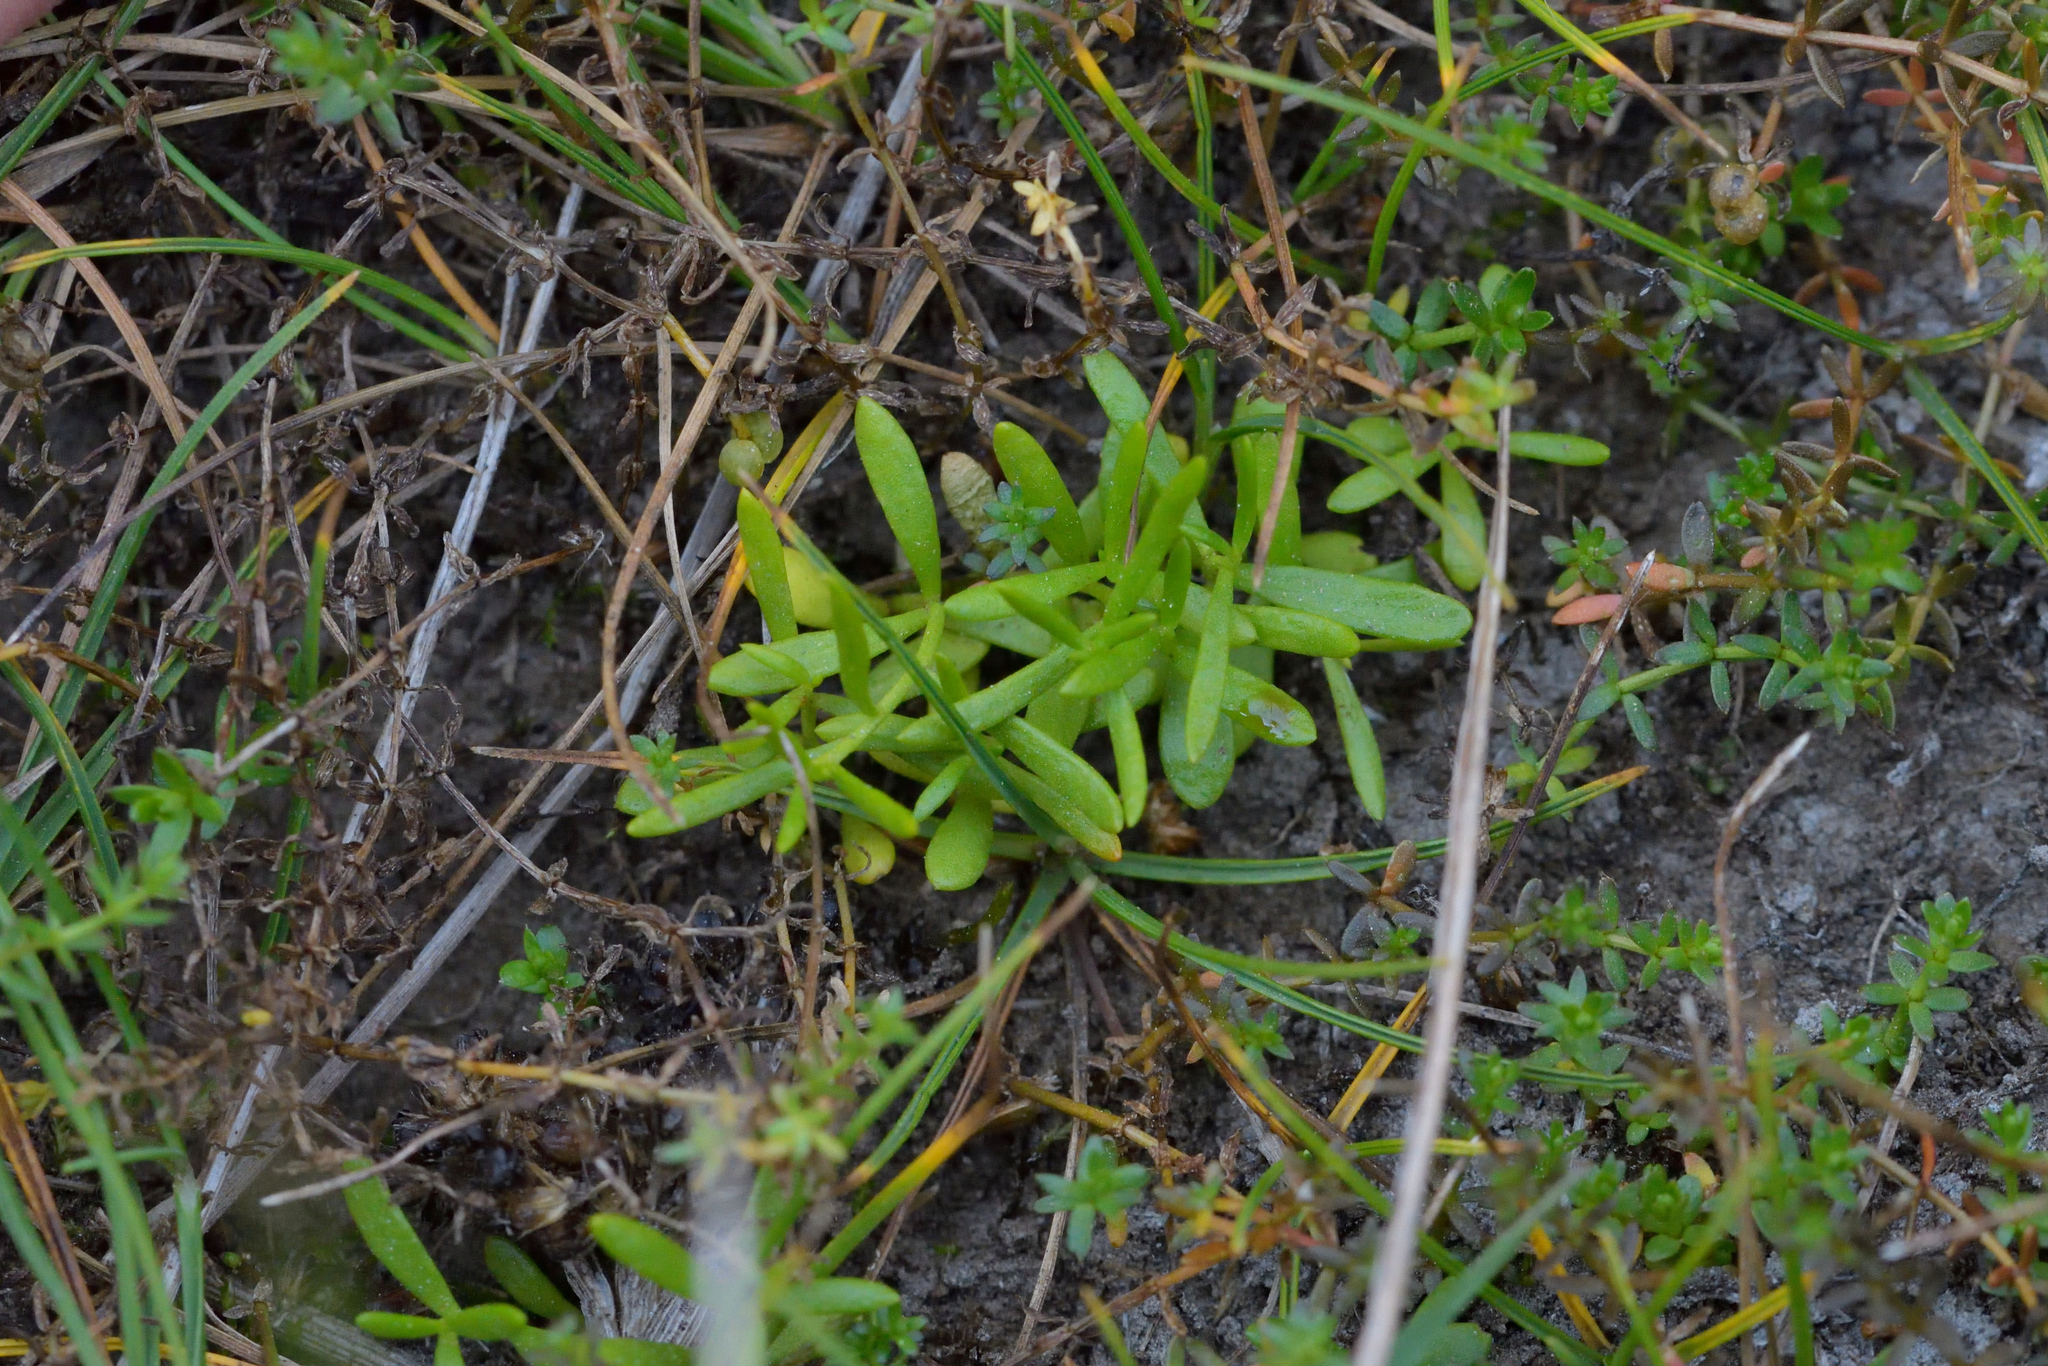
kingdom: Plantae
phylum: Tracheophyta
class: Magnoliopsida
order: Celastrales
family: Celastraceae
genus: Stackhousia
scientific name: Stackhousia minima
